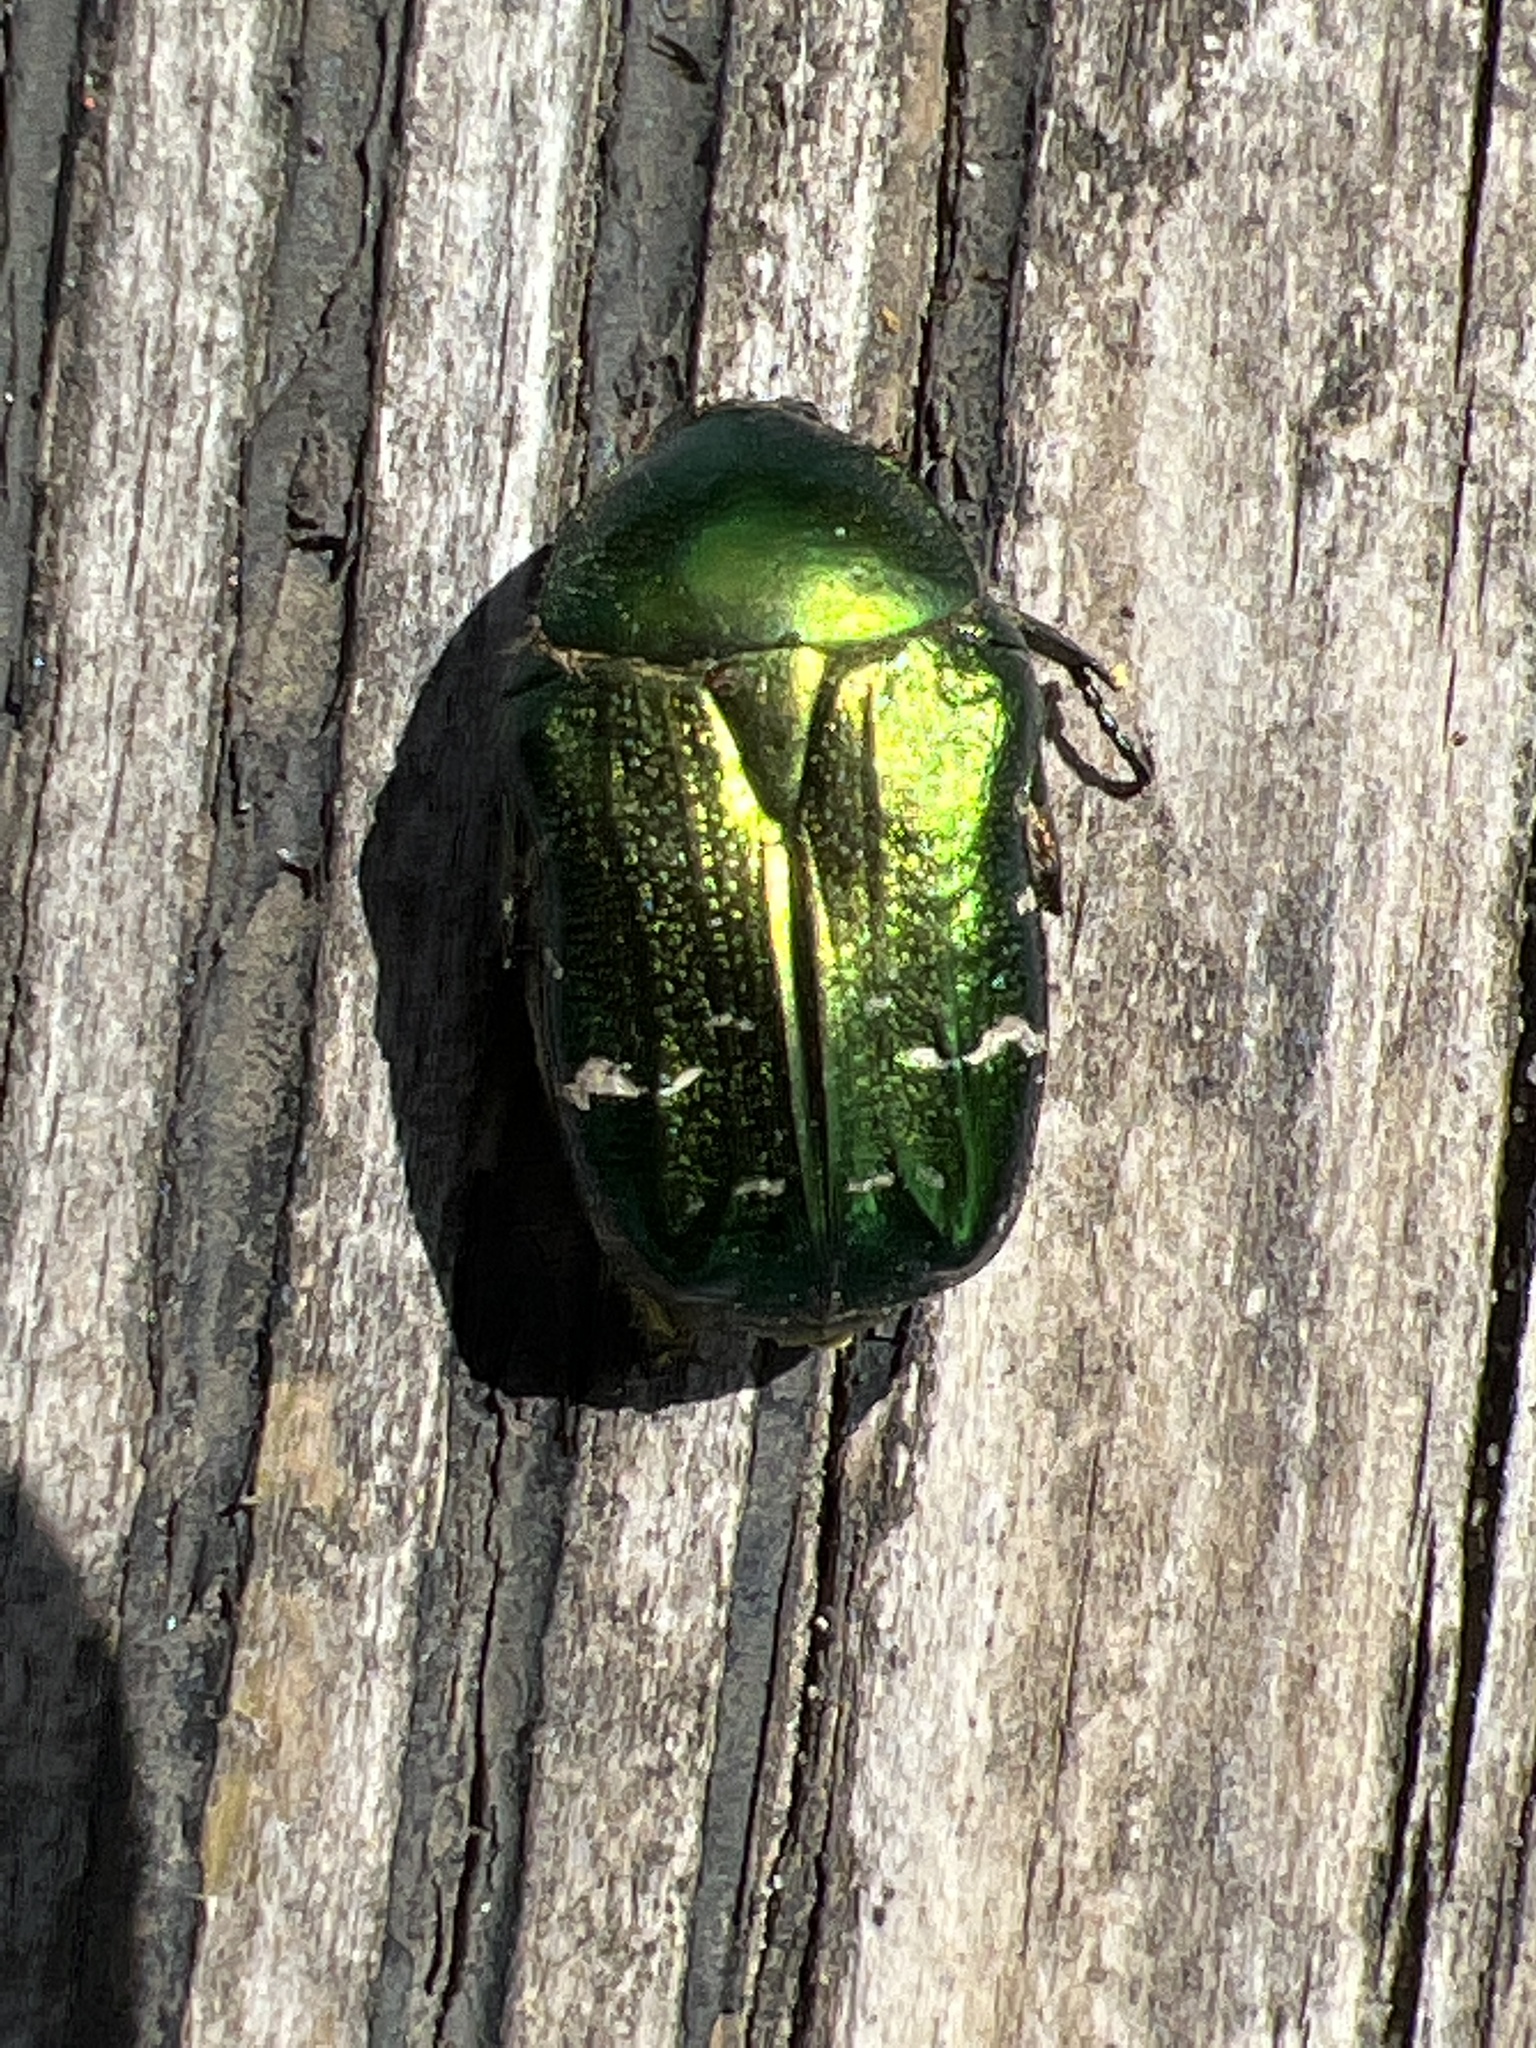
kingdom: Animalia
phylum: Arthropoda
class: Insecta
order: Coleoptera
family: Scarabaeidae
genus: Cetonia
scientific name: Cetonia aurata
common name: Rose chafer
